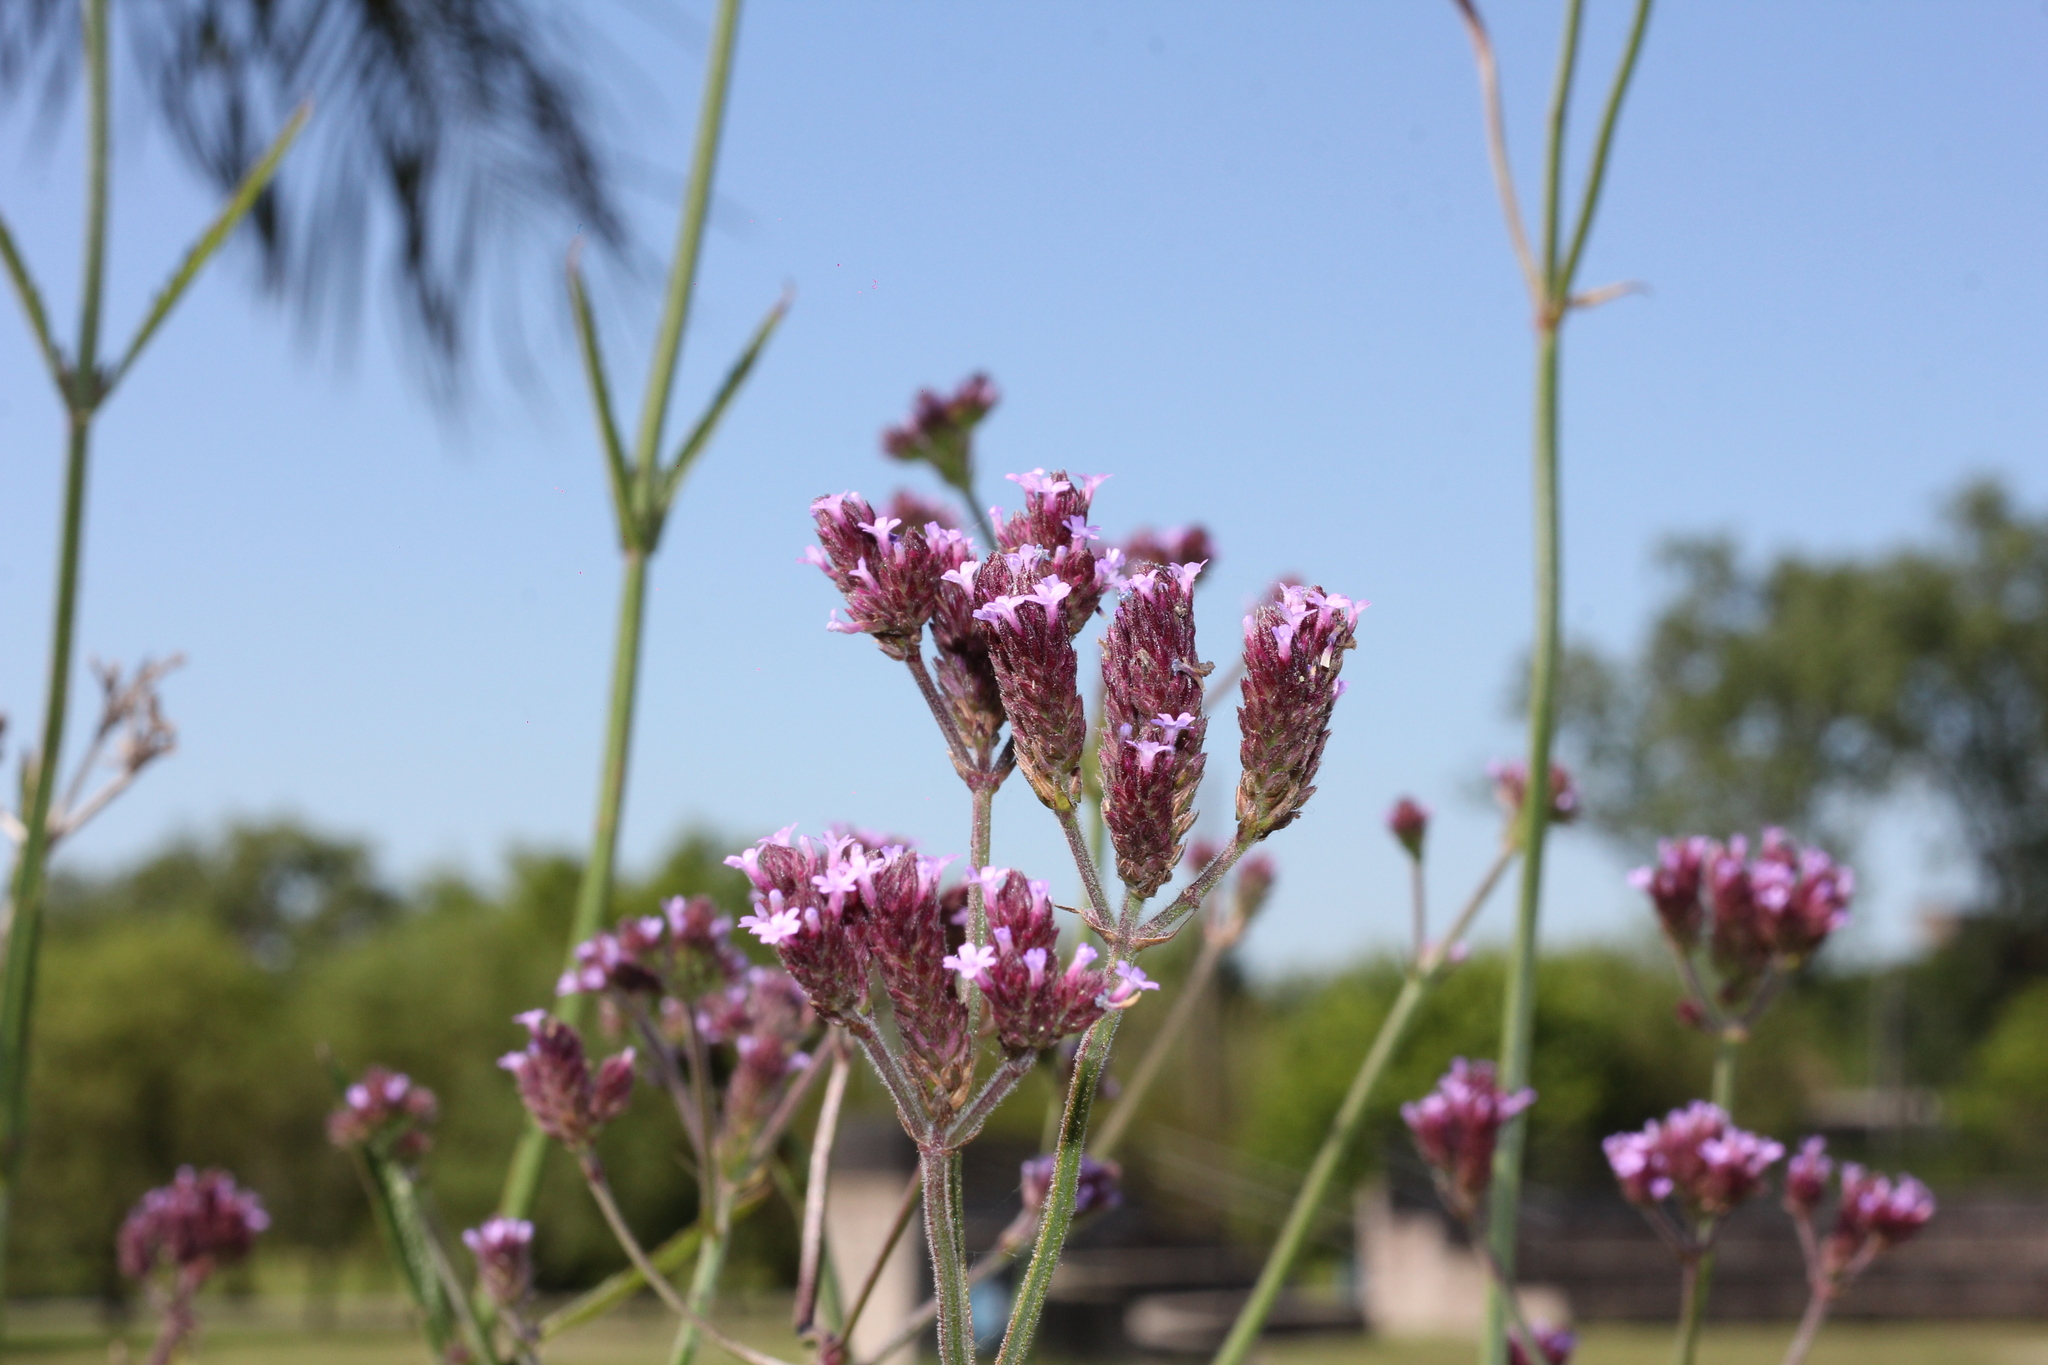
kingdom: Plantae
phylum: Tracheophyta
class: Magnoliopsida
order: Lamiales
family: Verbenaceae
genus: Verbena
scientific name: Verbena bonariensis
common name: Purpletop vervain
